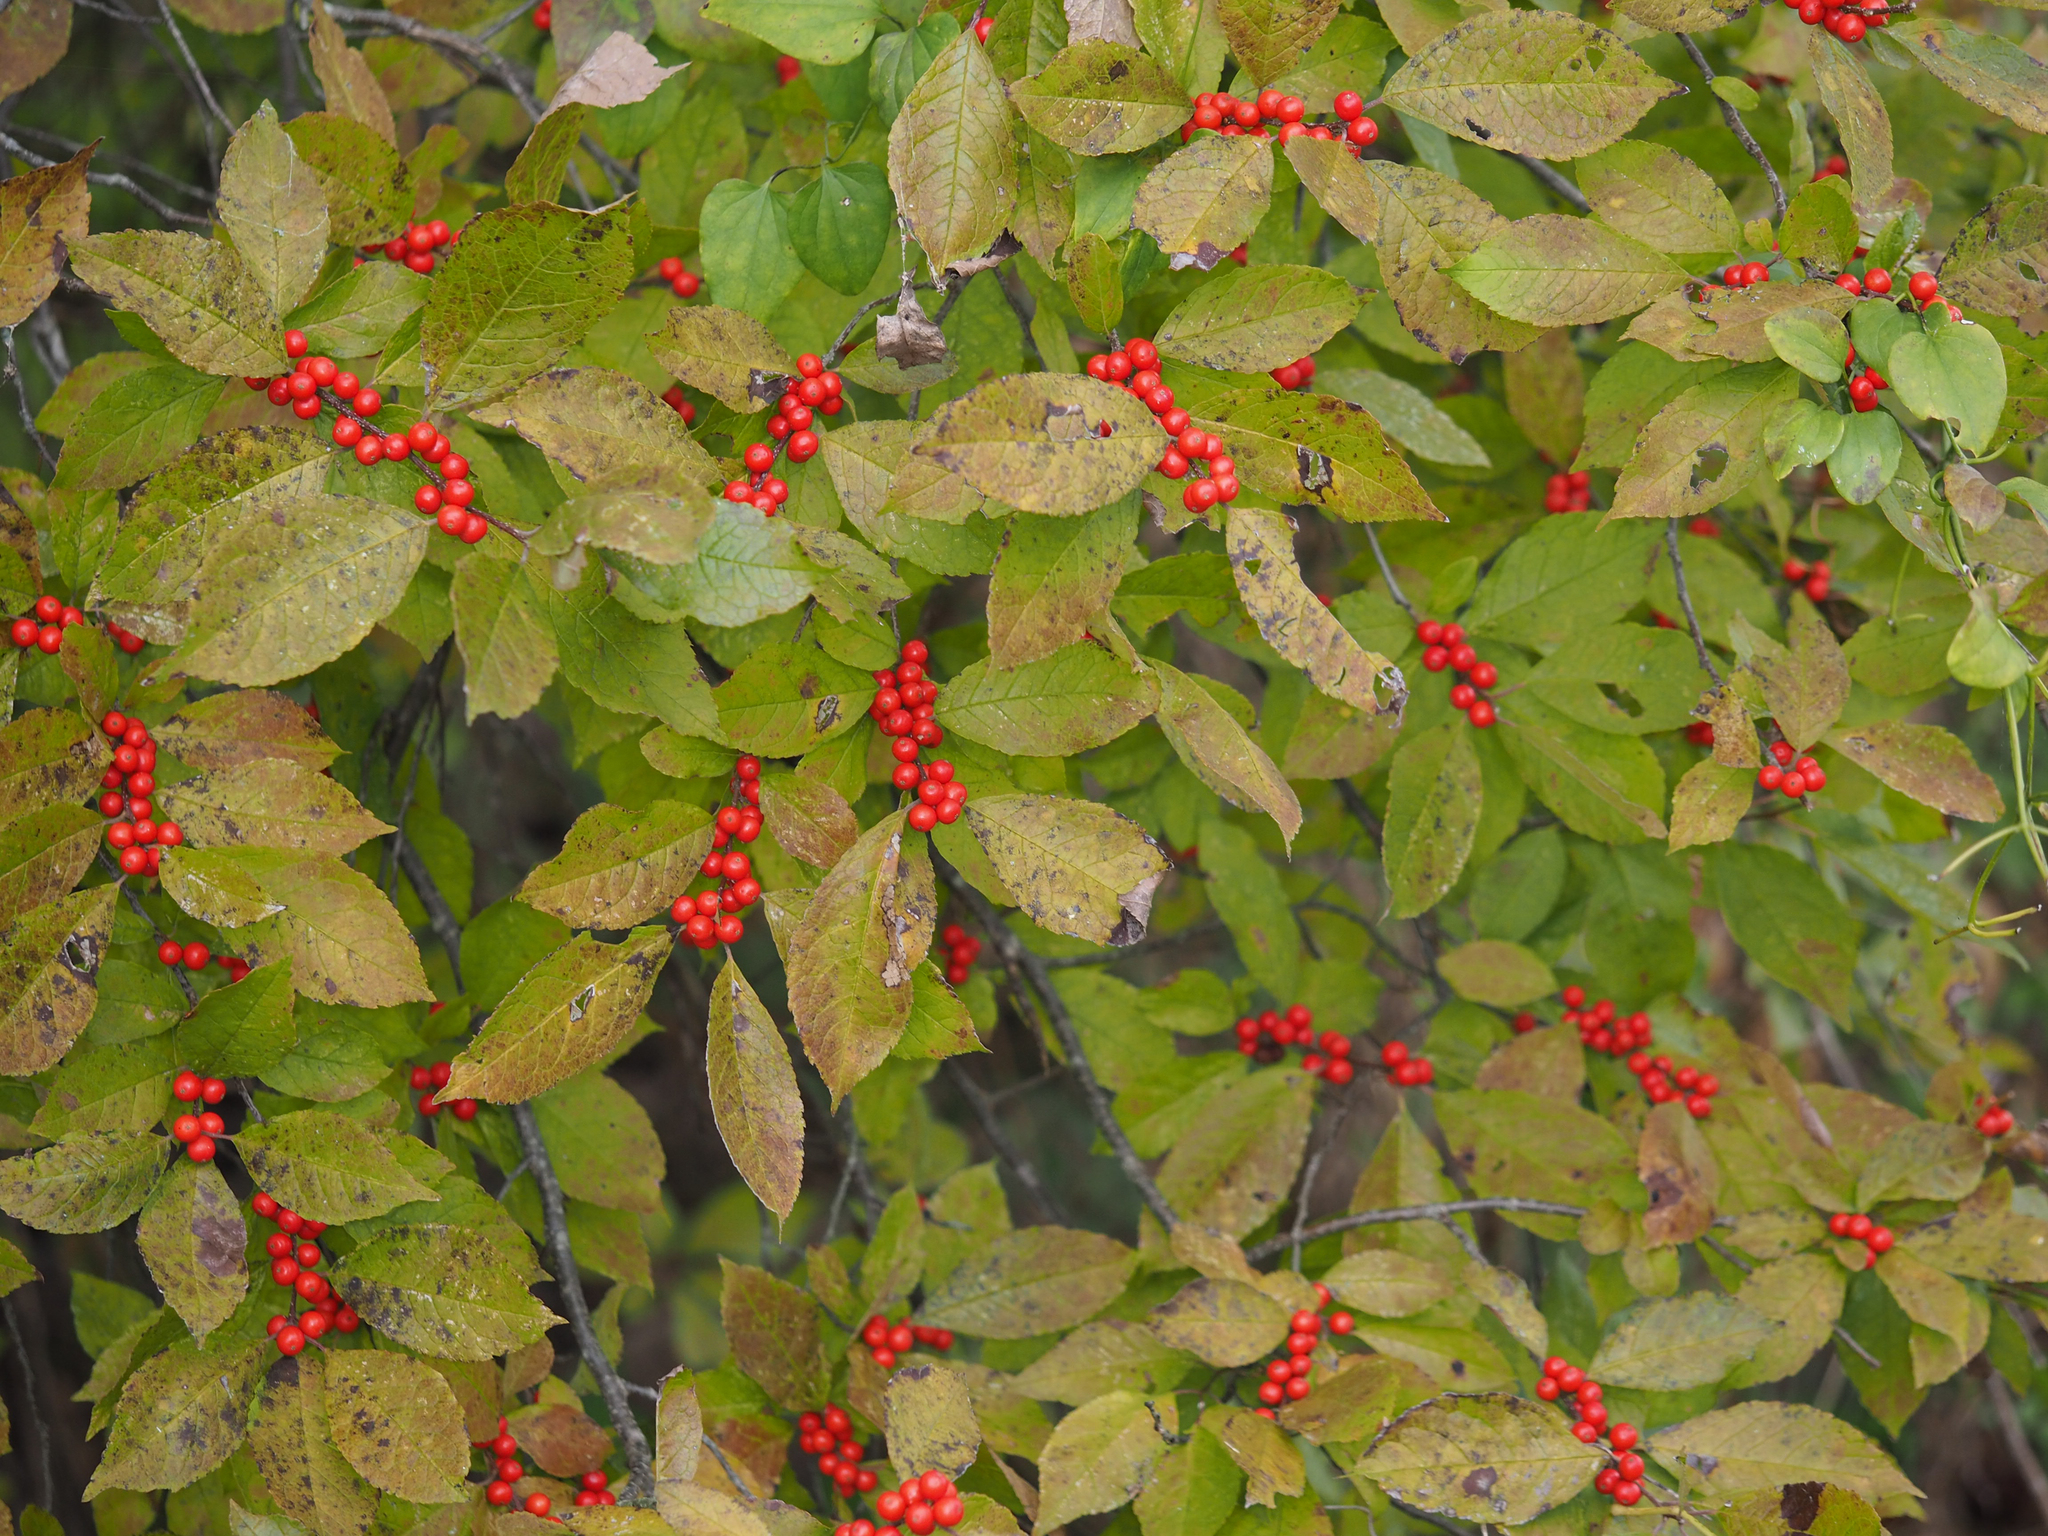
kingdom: Plantae
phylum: Tracheophyta
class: Magnoliopsida
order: Aquifoliales
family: Aquifoliaceae
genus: Ilex
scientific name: Ilex verticillata
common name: Virginia winterberry
